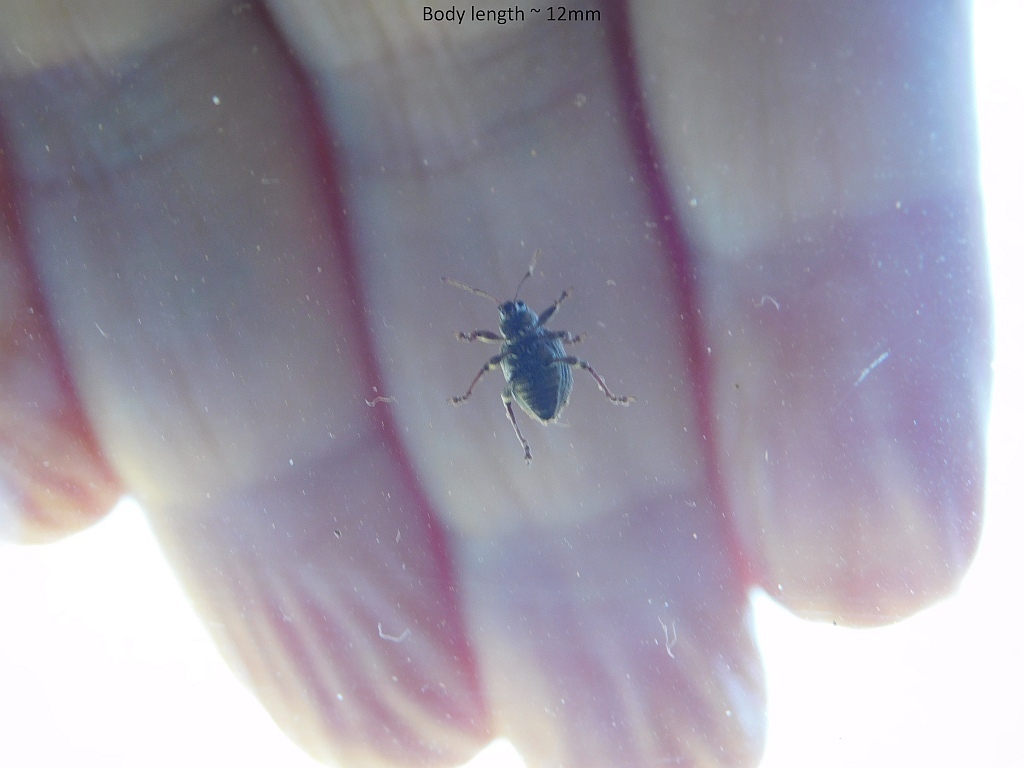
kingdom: Animalia
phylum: Arthropoda
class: Insecta
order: Coleoptera
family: Curculionidae
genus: Phlyctinus
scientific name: Phlyctinus callosus
